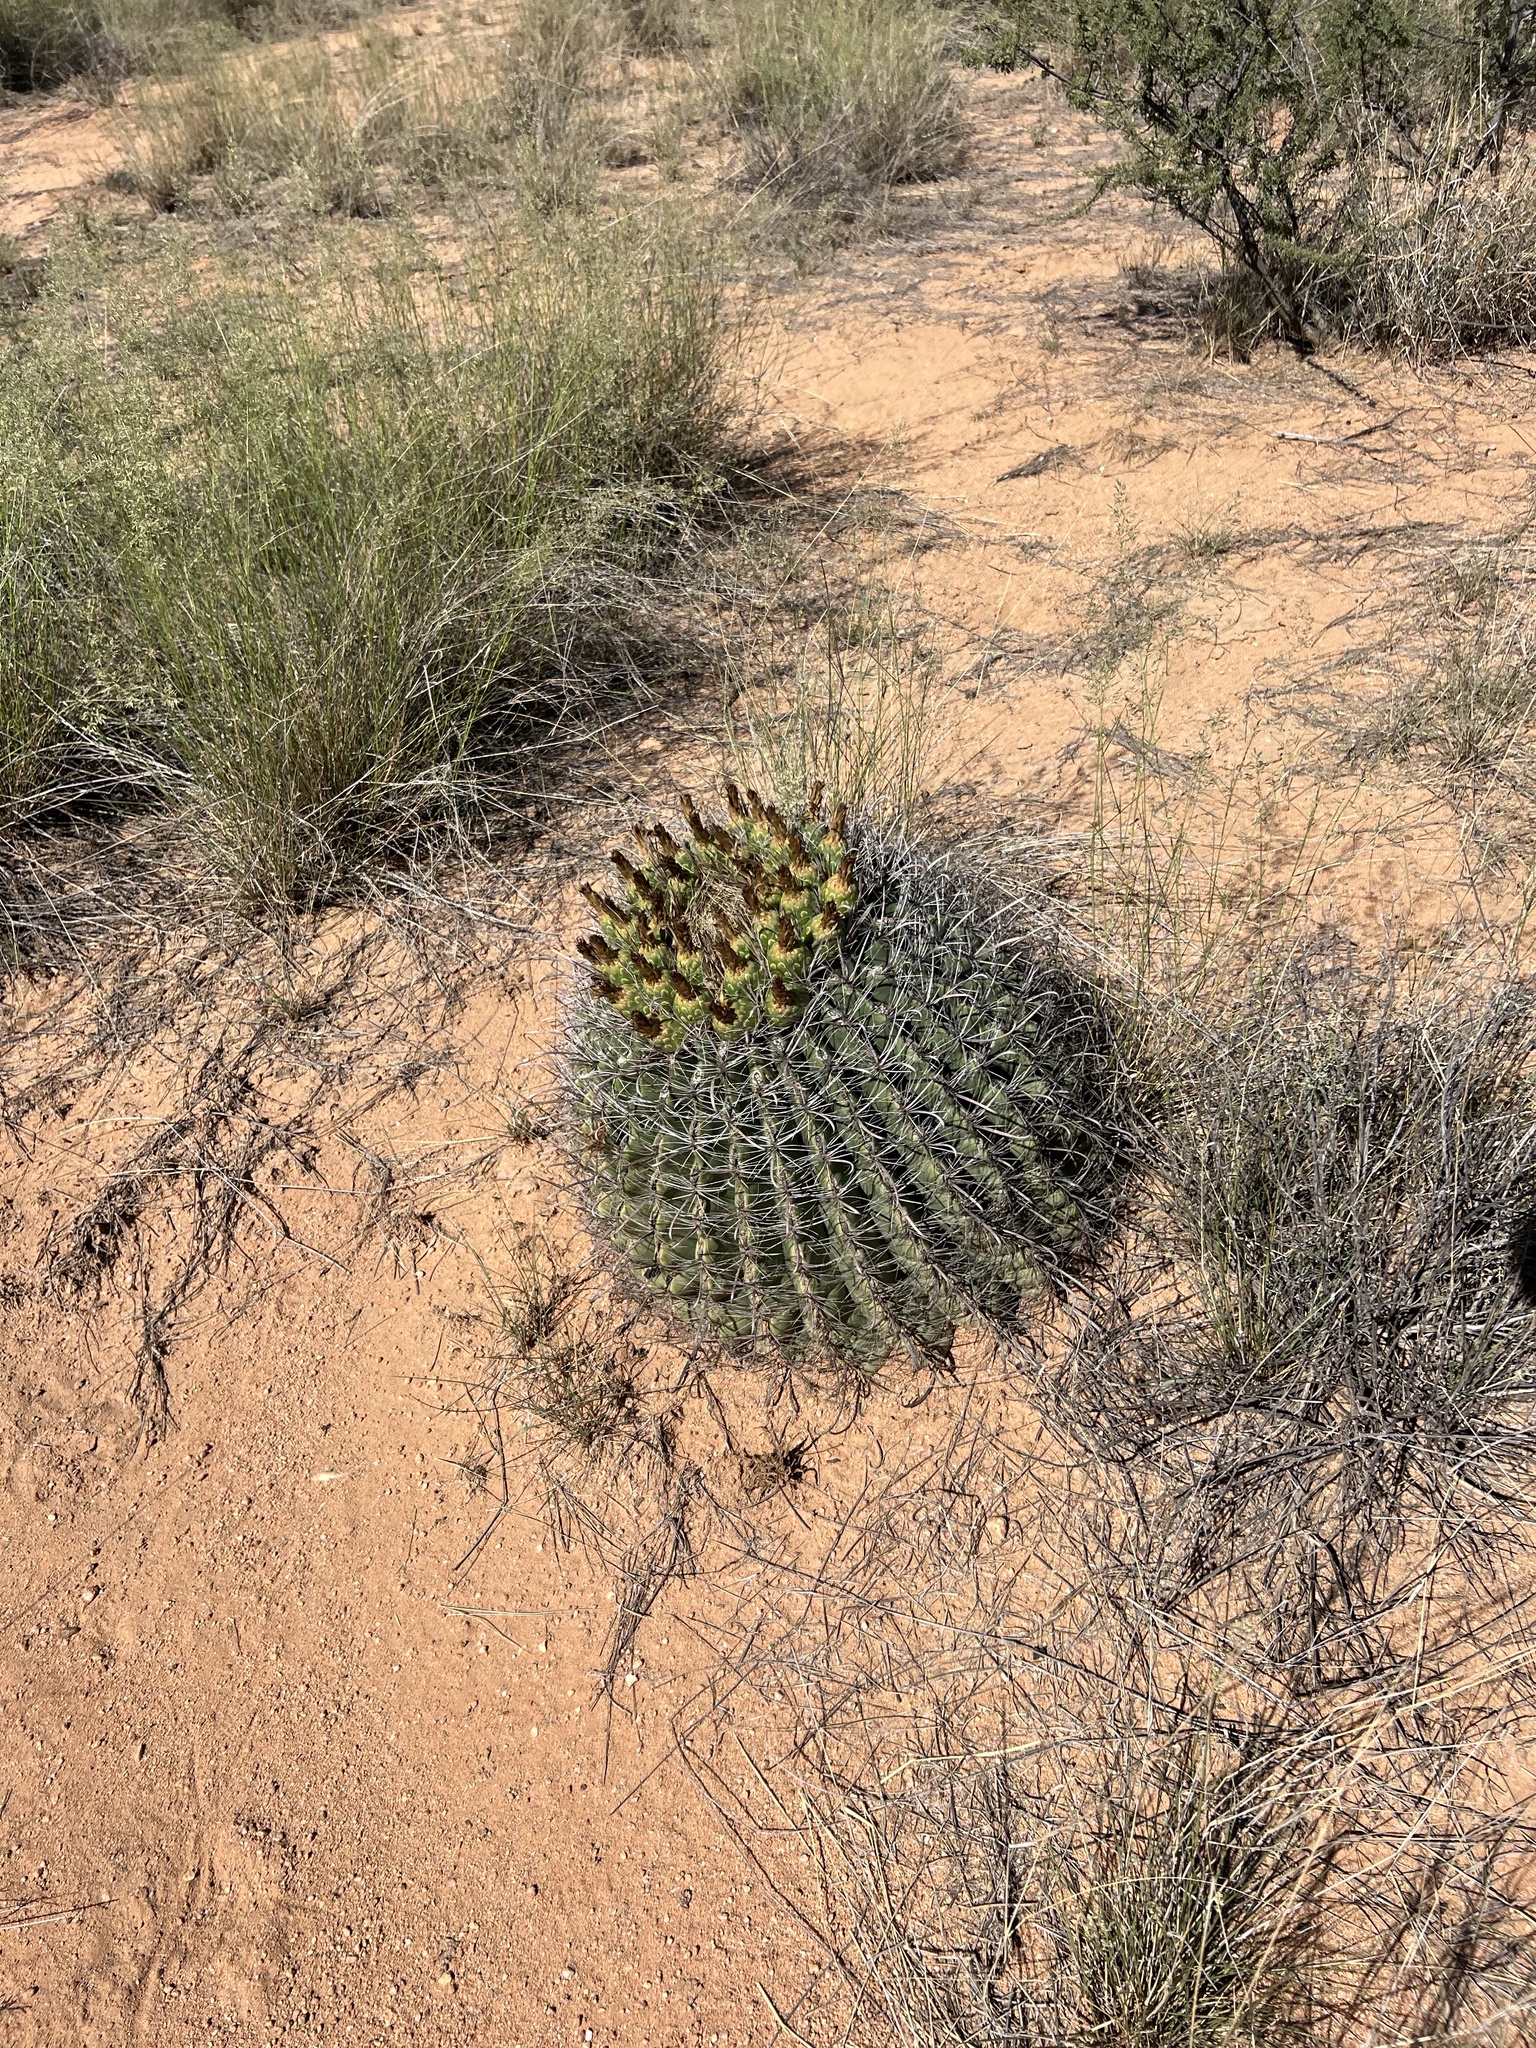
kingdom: Plantae
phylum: Tracheophyta
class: Magnoliopsida
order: Caryophyllales
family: Cactaceae
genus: Ferocactus
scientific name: Ferocactus wislizeni
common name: Candy barrel cactus
